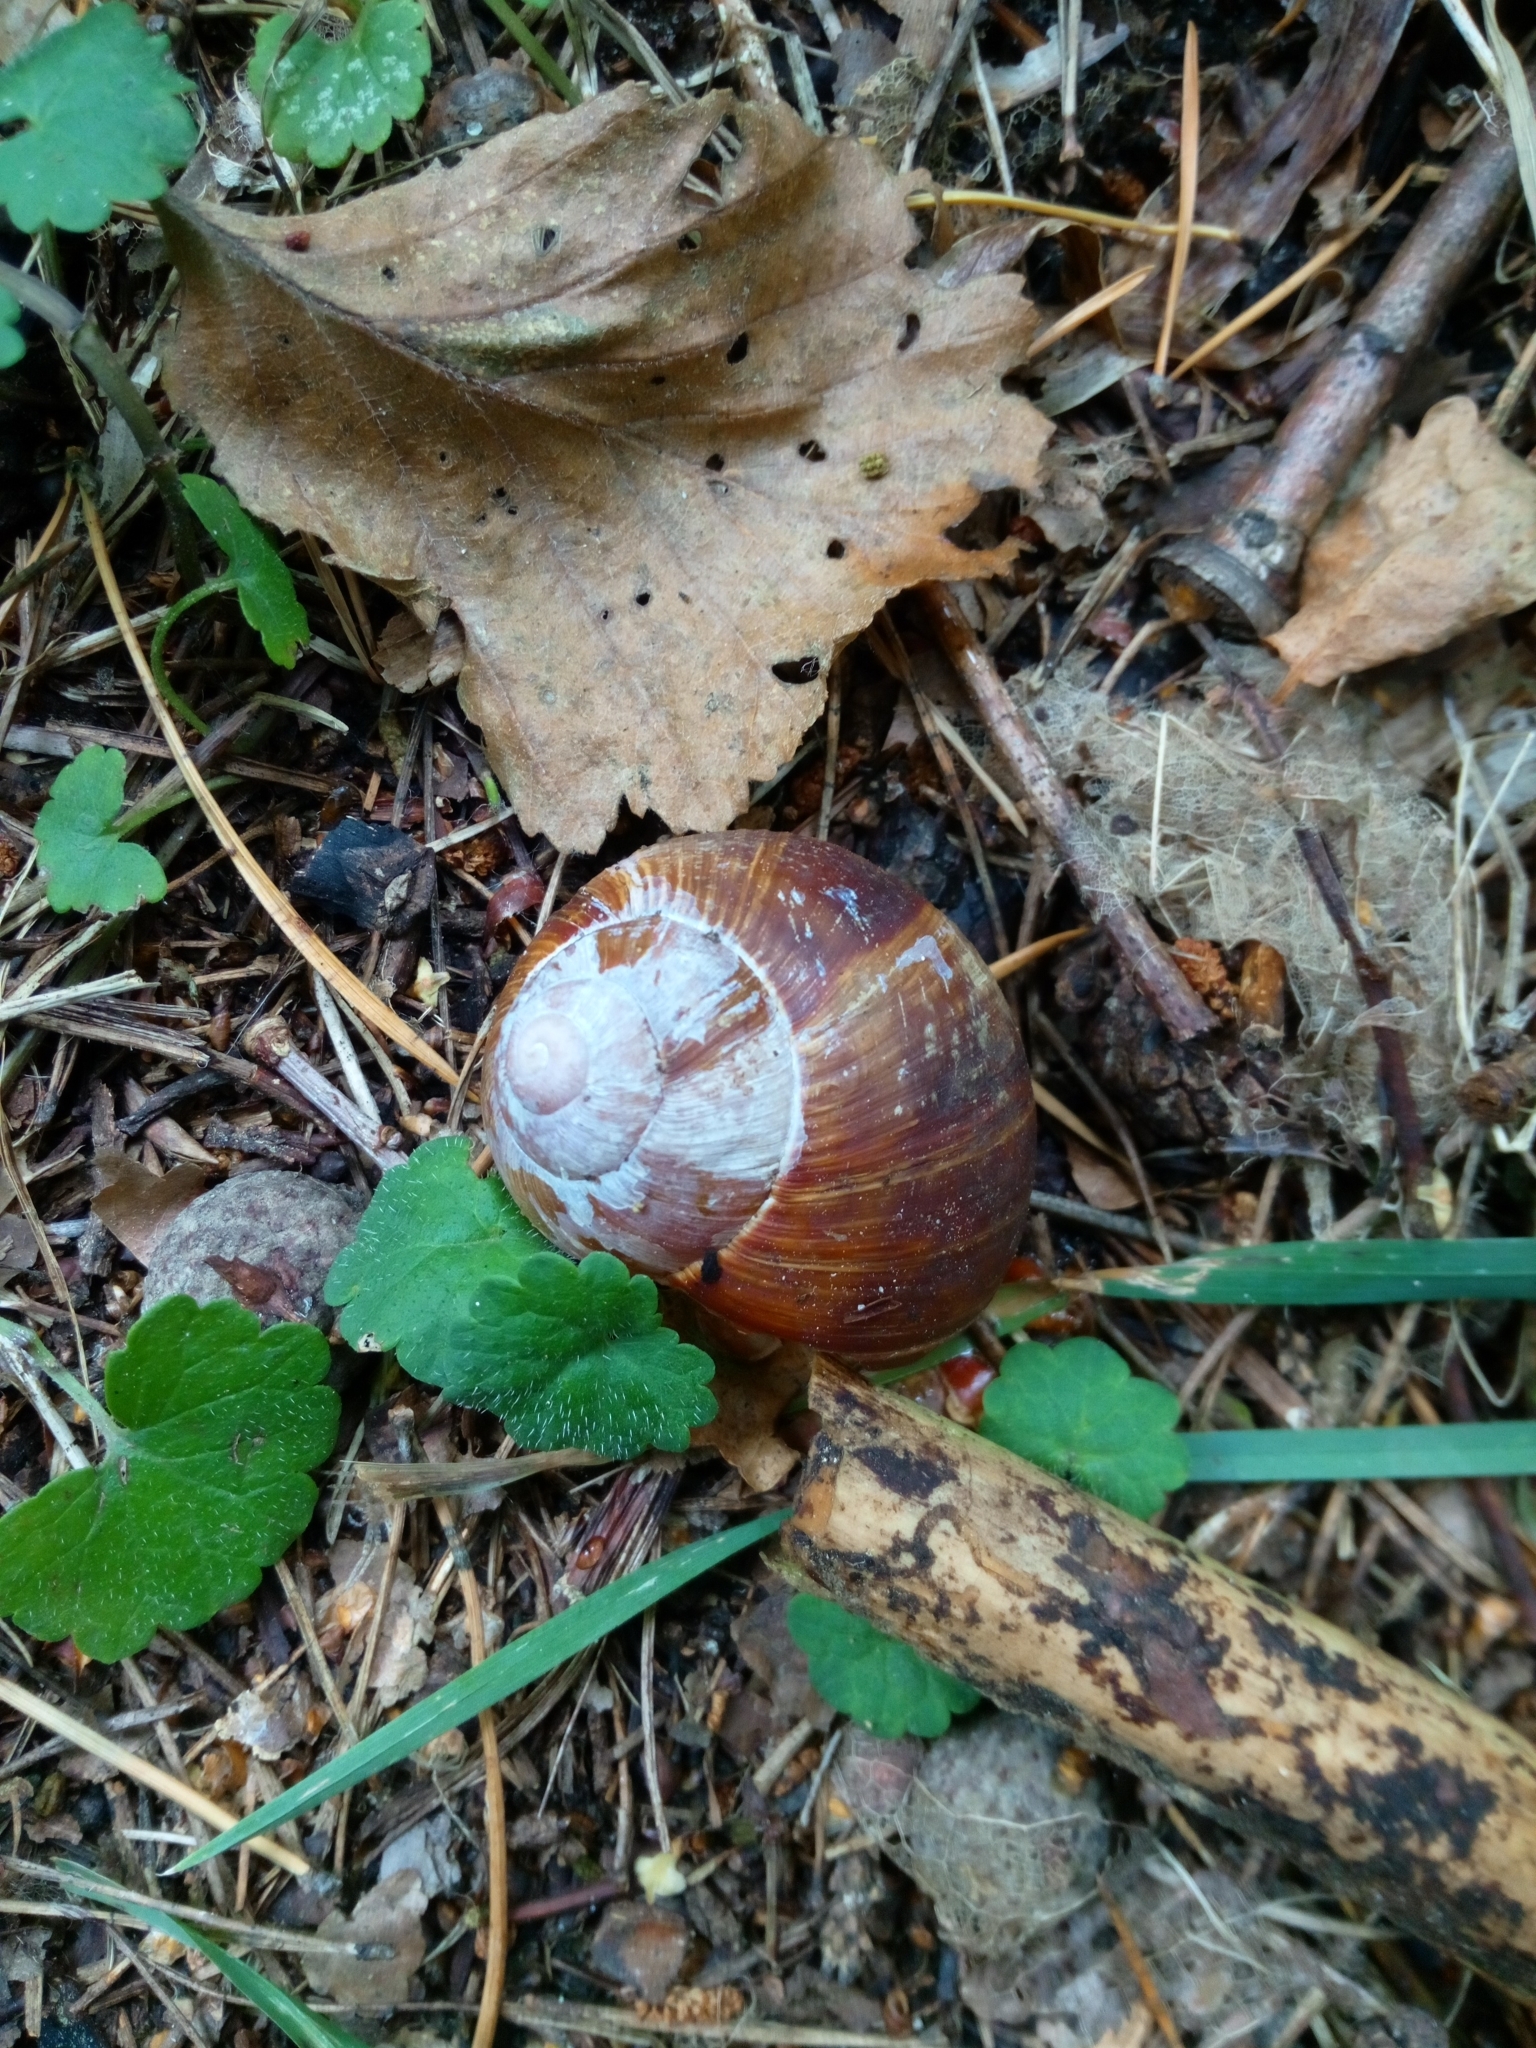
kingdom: Animalia
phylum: Mollusca
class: Gastropoda
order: Stylommatophora
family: Helicidae
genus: Helix
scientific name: Helix pomatia
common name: Roman snail
